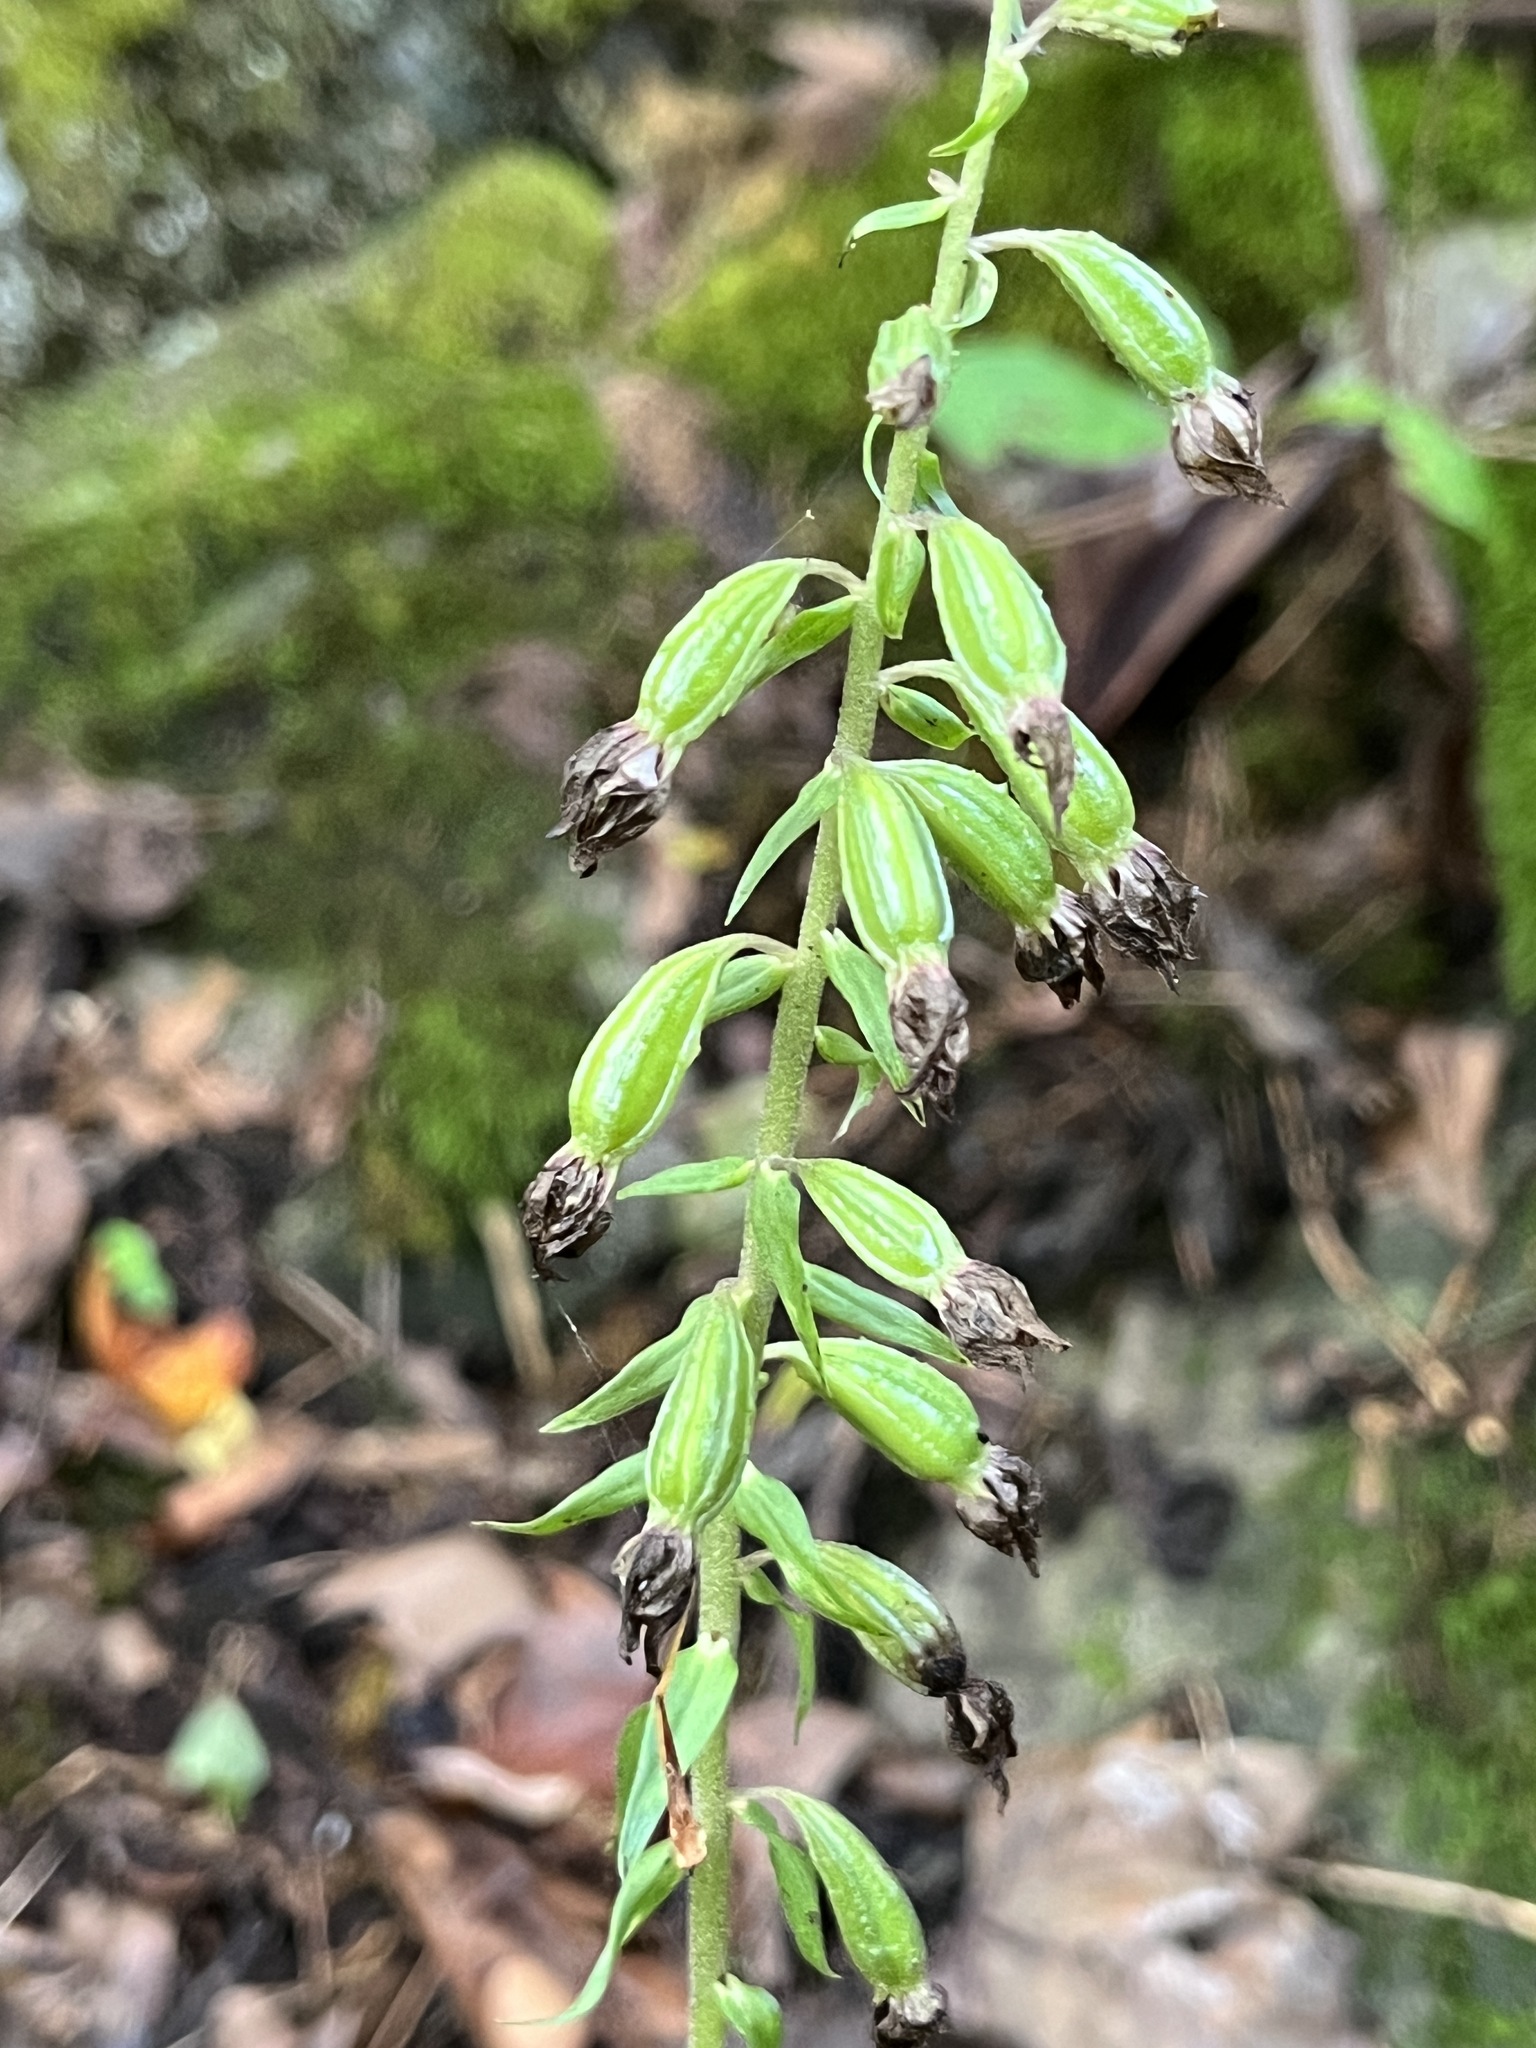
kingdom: Plantae
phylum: Tracheophyta
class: Liliopsida
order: Asparagales
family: Orchidaceae
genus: Epipactis
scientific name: Epipactis helleborine
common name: Broad-leaved helleborine
